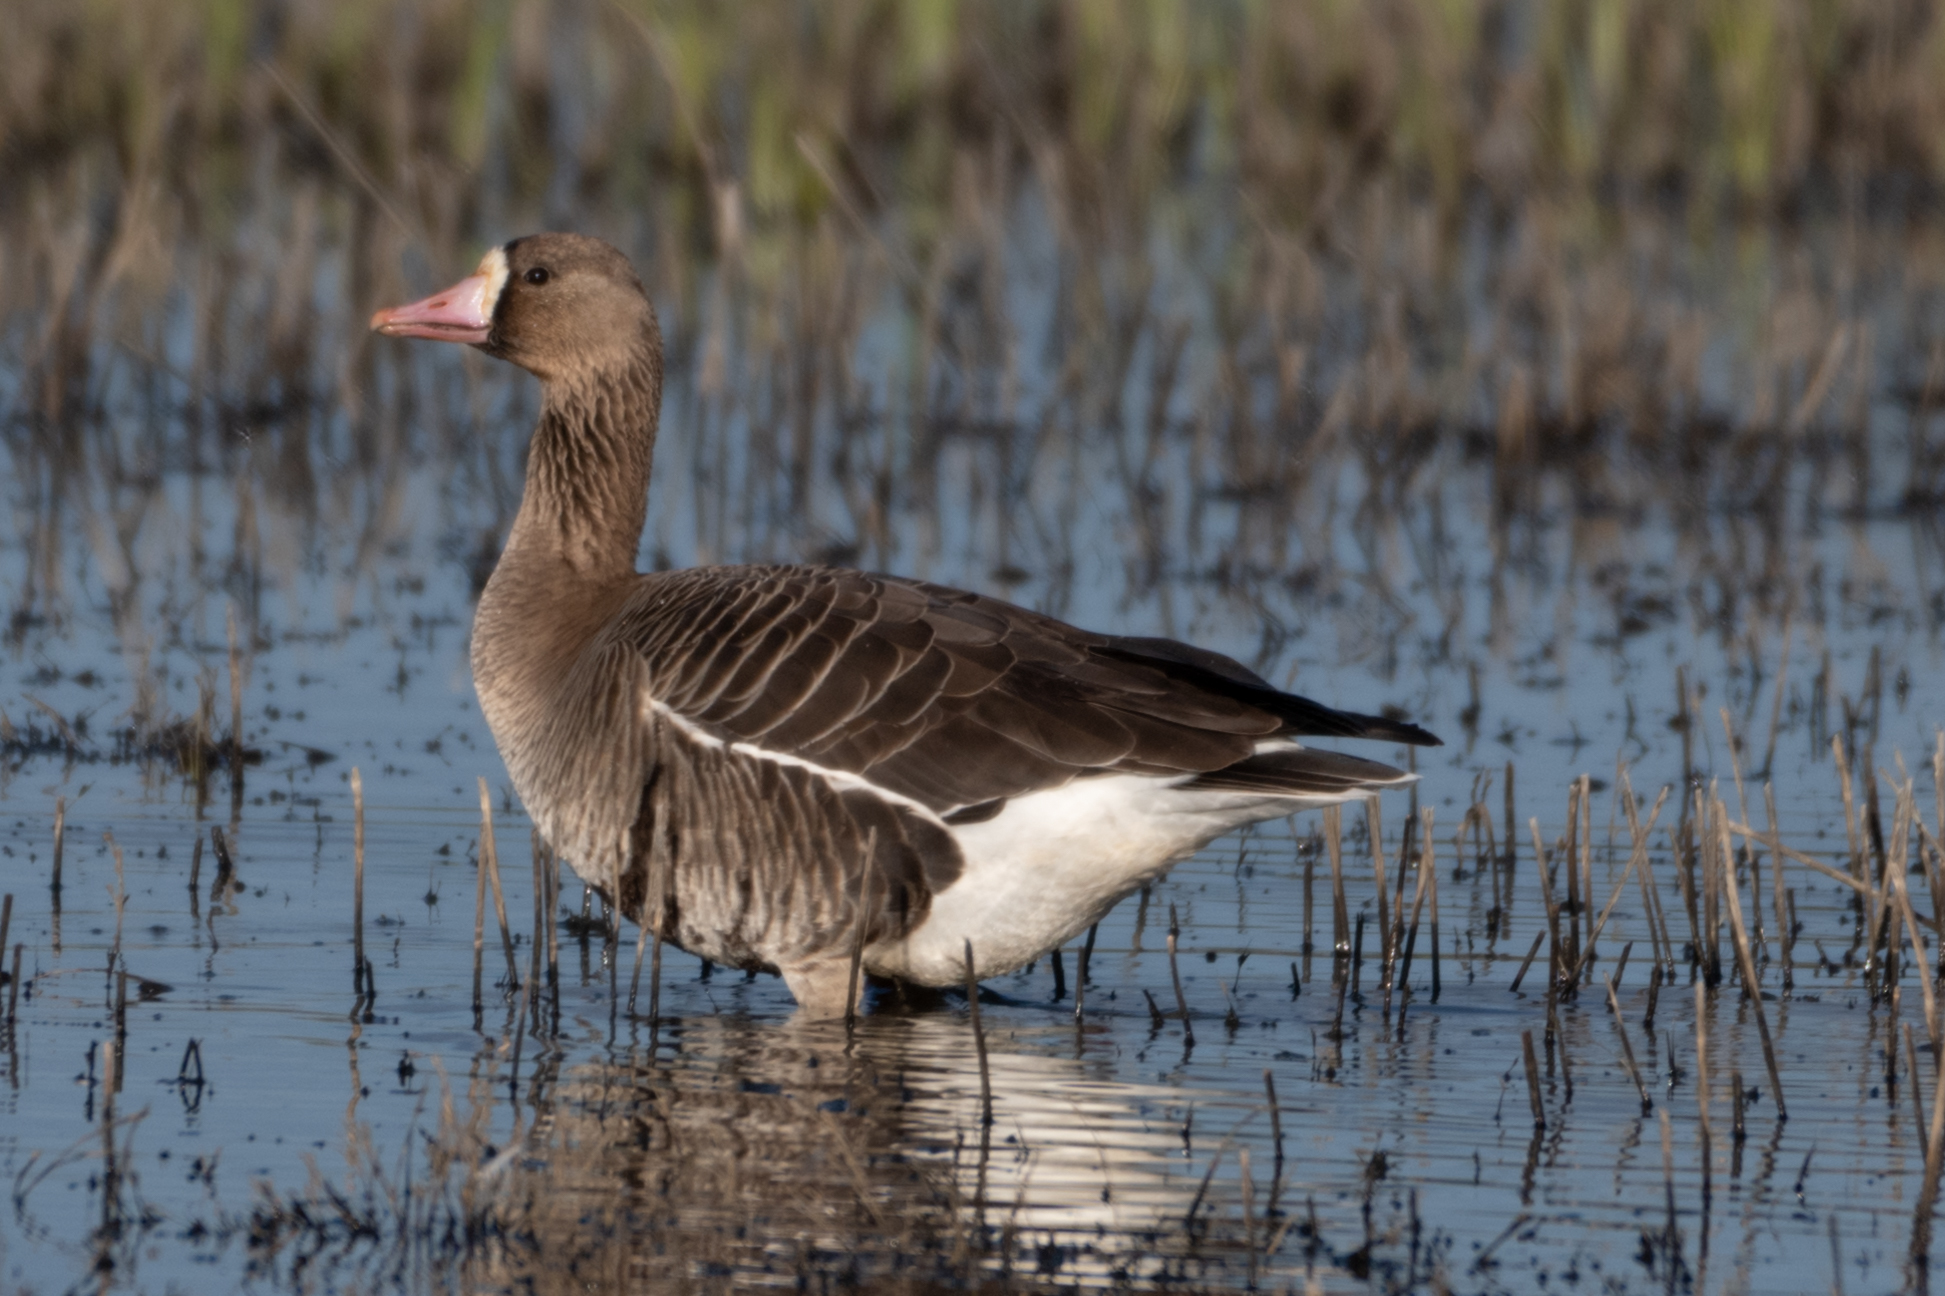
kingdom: Animalia
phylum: Chordata
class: Aves
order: Anseriformes
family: Anatidae
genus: Anser
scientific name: Anser albifrons
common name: Greater white-fronted goose
